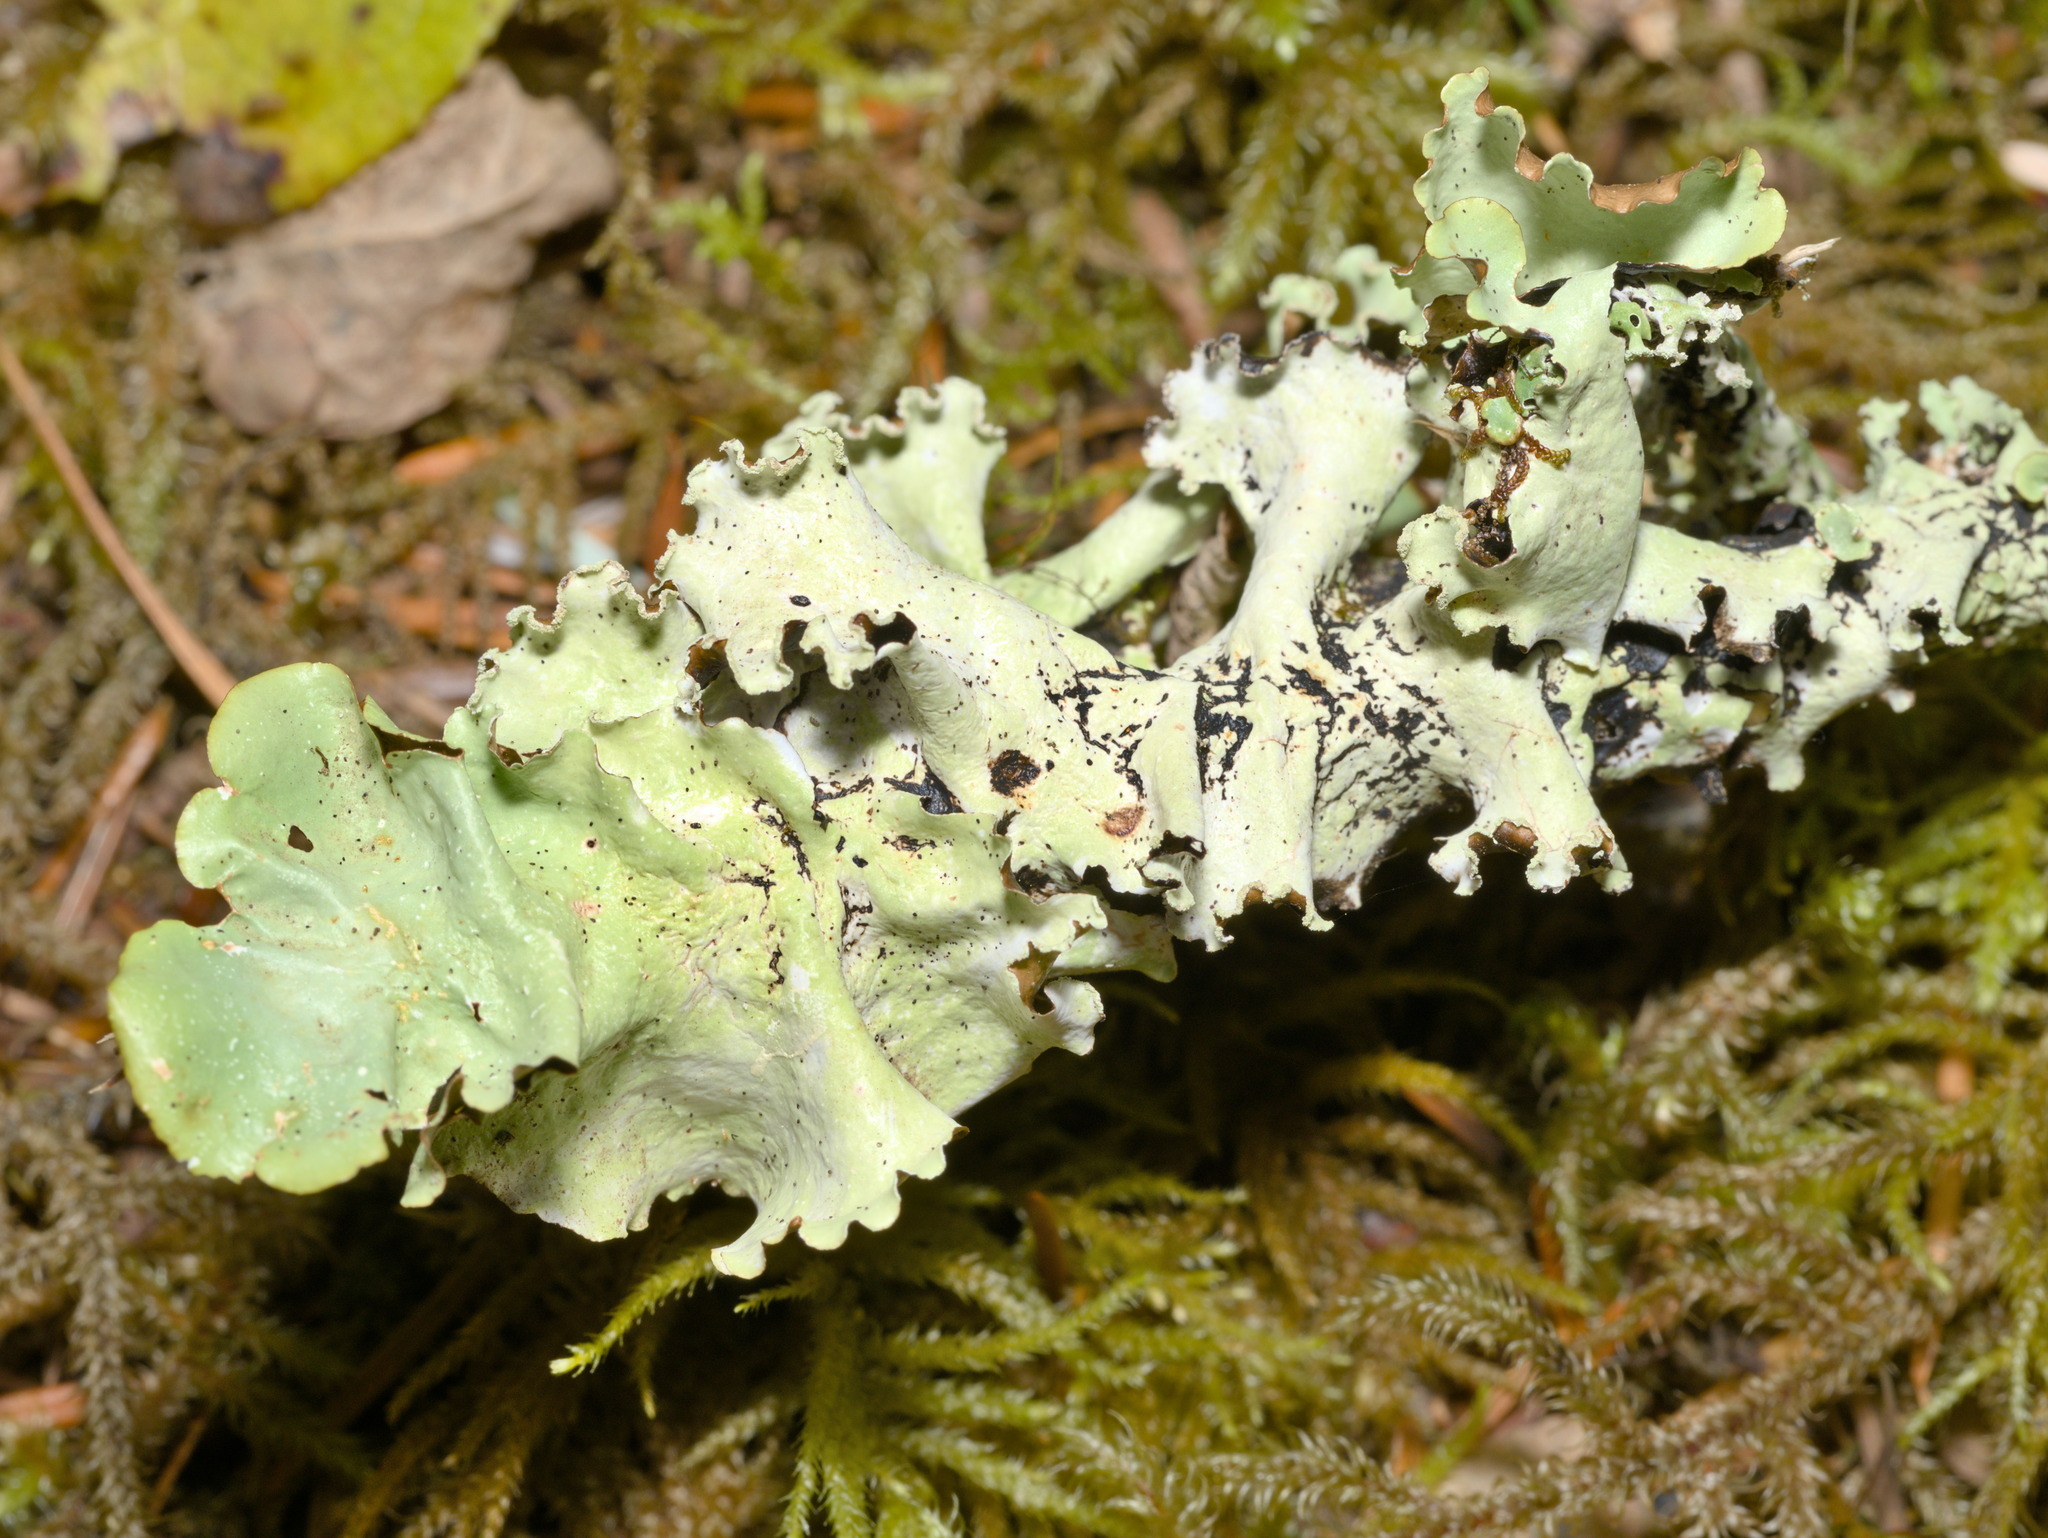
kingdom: Fungi
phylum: Ascomycota
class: Lecanoromycetes
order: Lecanorales
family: Parmeliaceae
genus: Cetrelia
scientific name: Cetrelia cetrarioides
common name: Speckled iceland lichen
